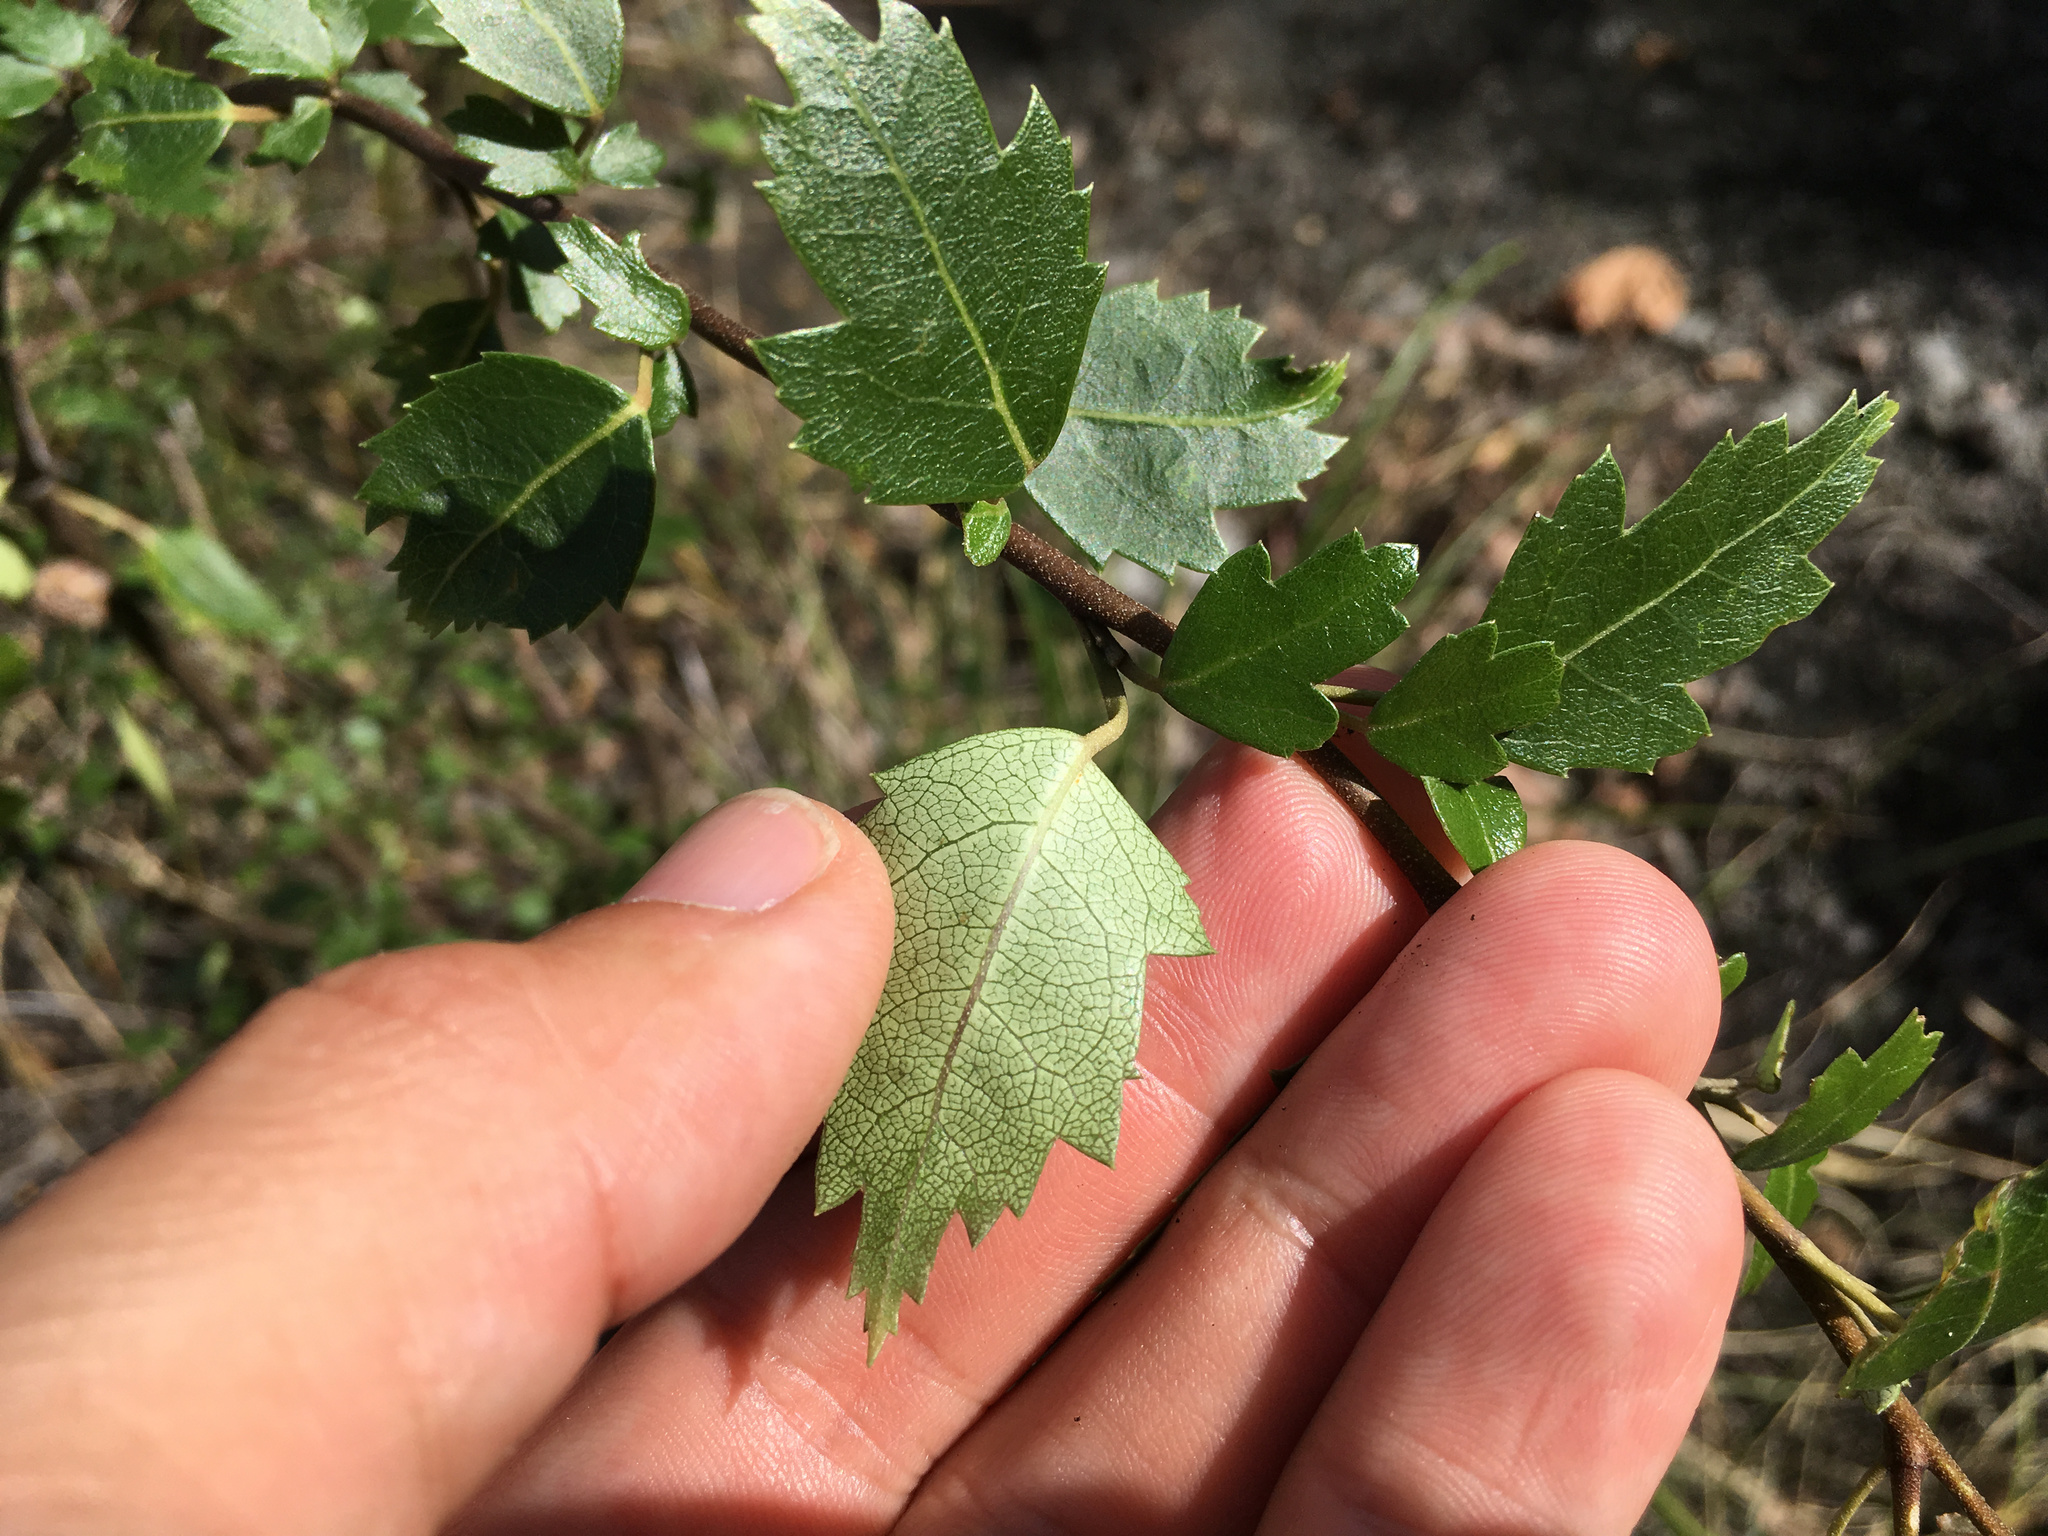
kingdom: Plantae
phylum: Tracheophyta
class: Magnoliopsida
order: Malvales
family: Malvaceae
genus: Plagianthus
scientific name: Plagianthus regius
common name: Manatu
